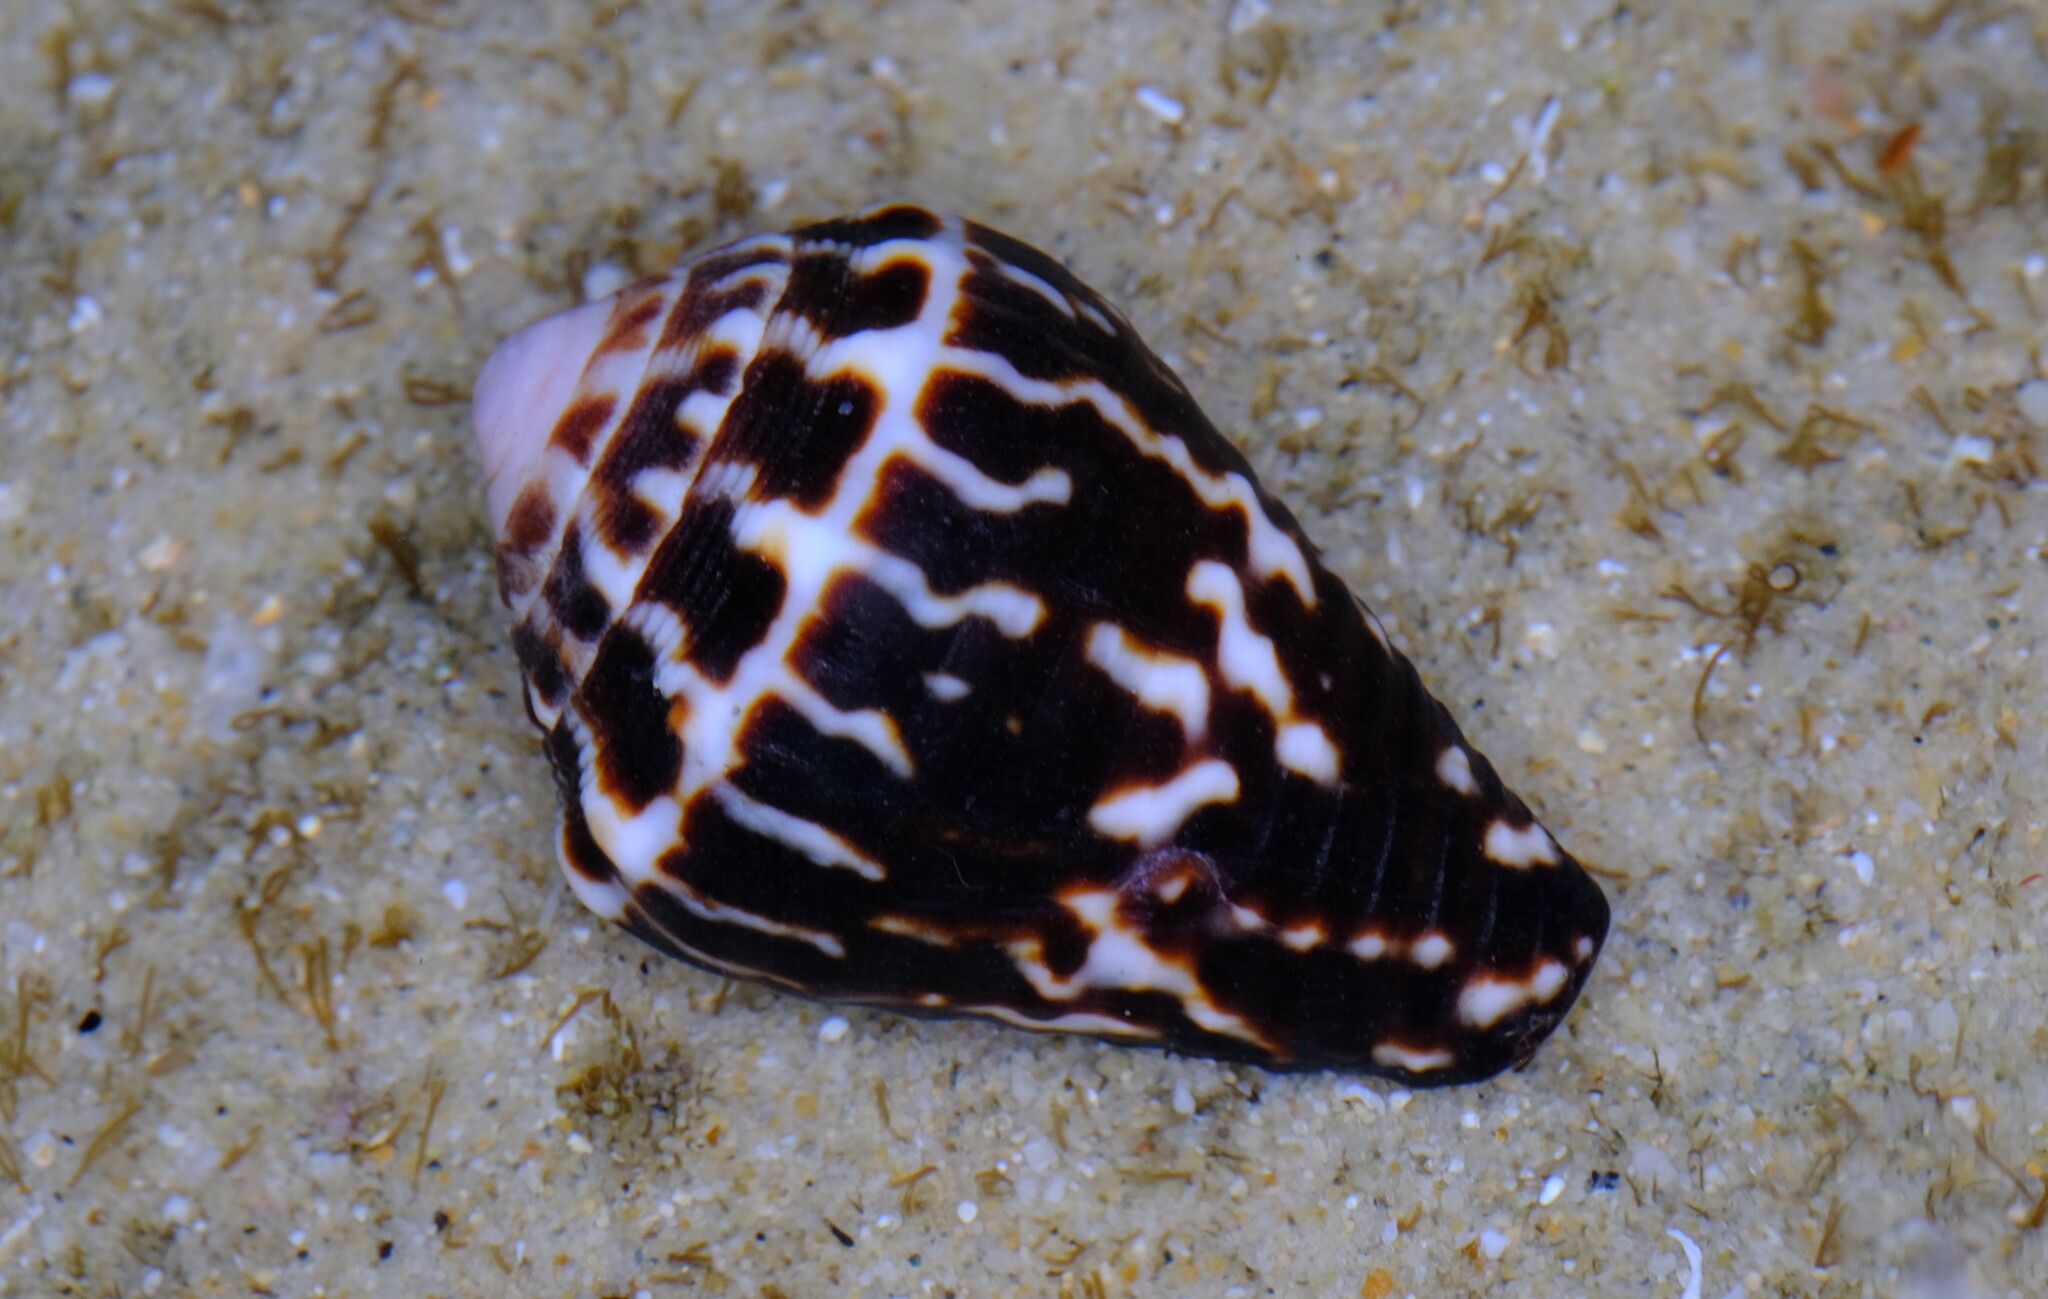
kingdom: Animalia
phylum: Mollusca
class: Gastropoda
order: Neogastropoda
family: Conidae
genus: Conus
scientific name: Conus chaldaeus
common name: Astrologer's cone
